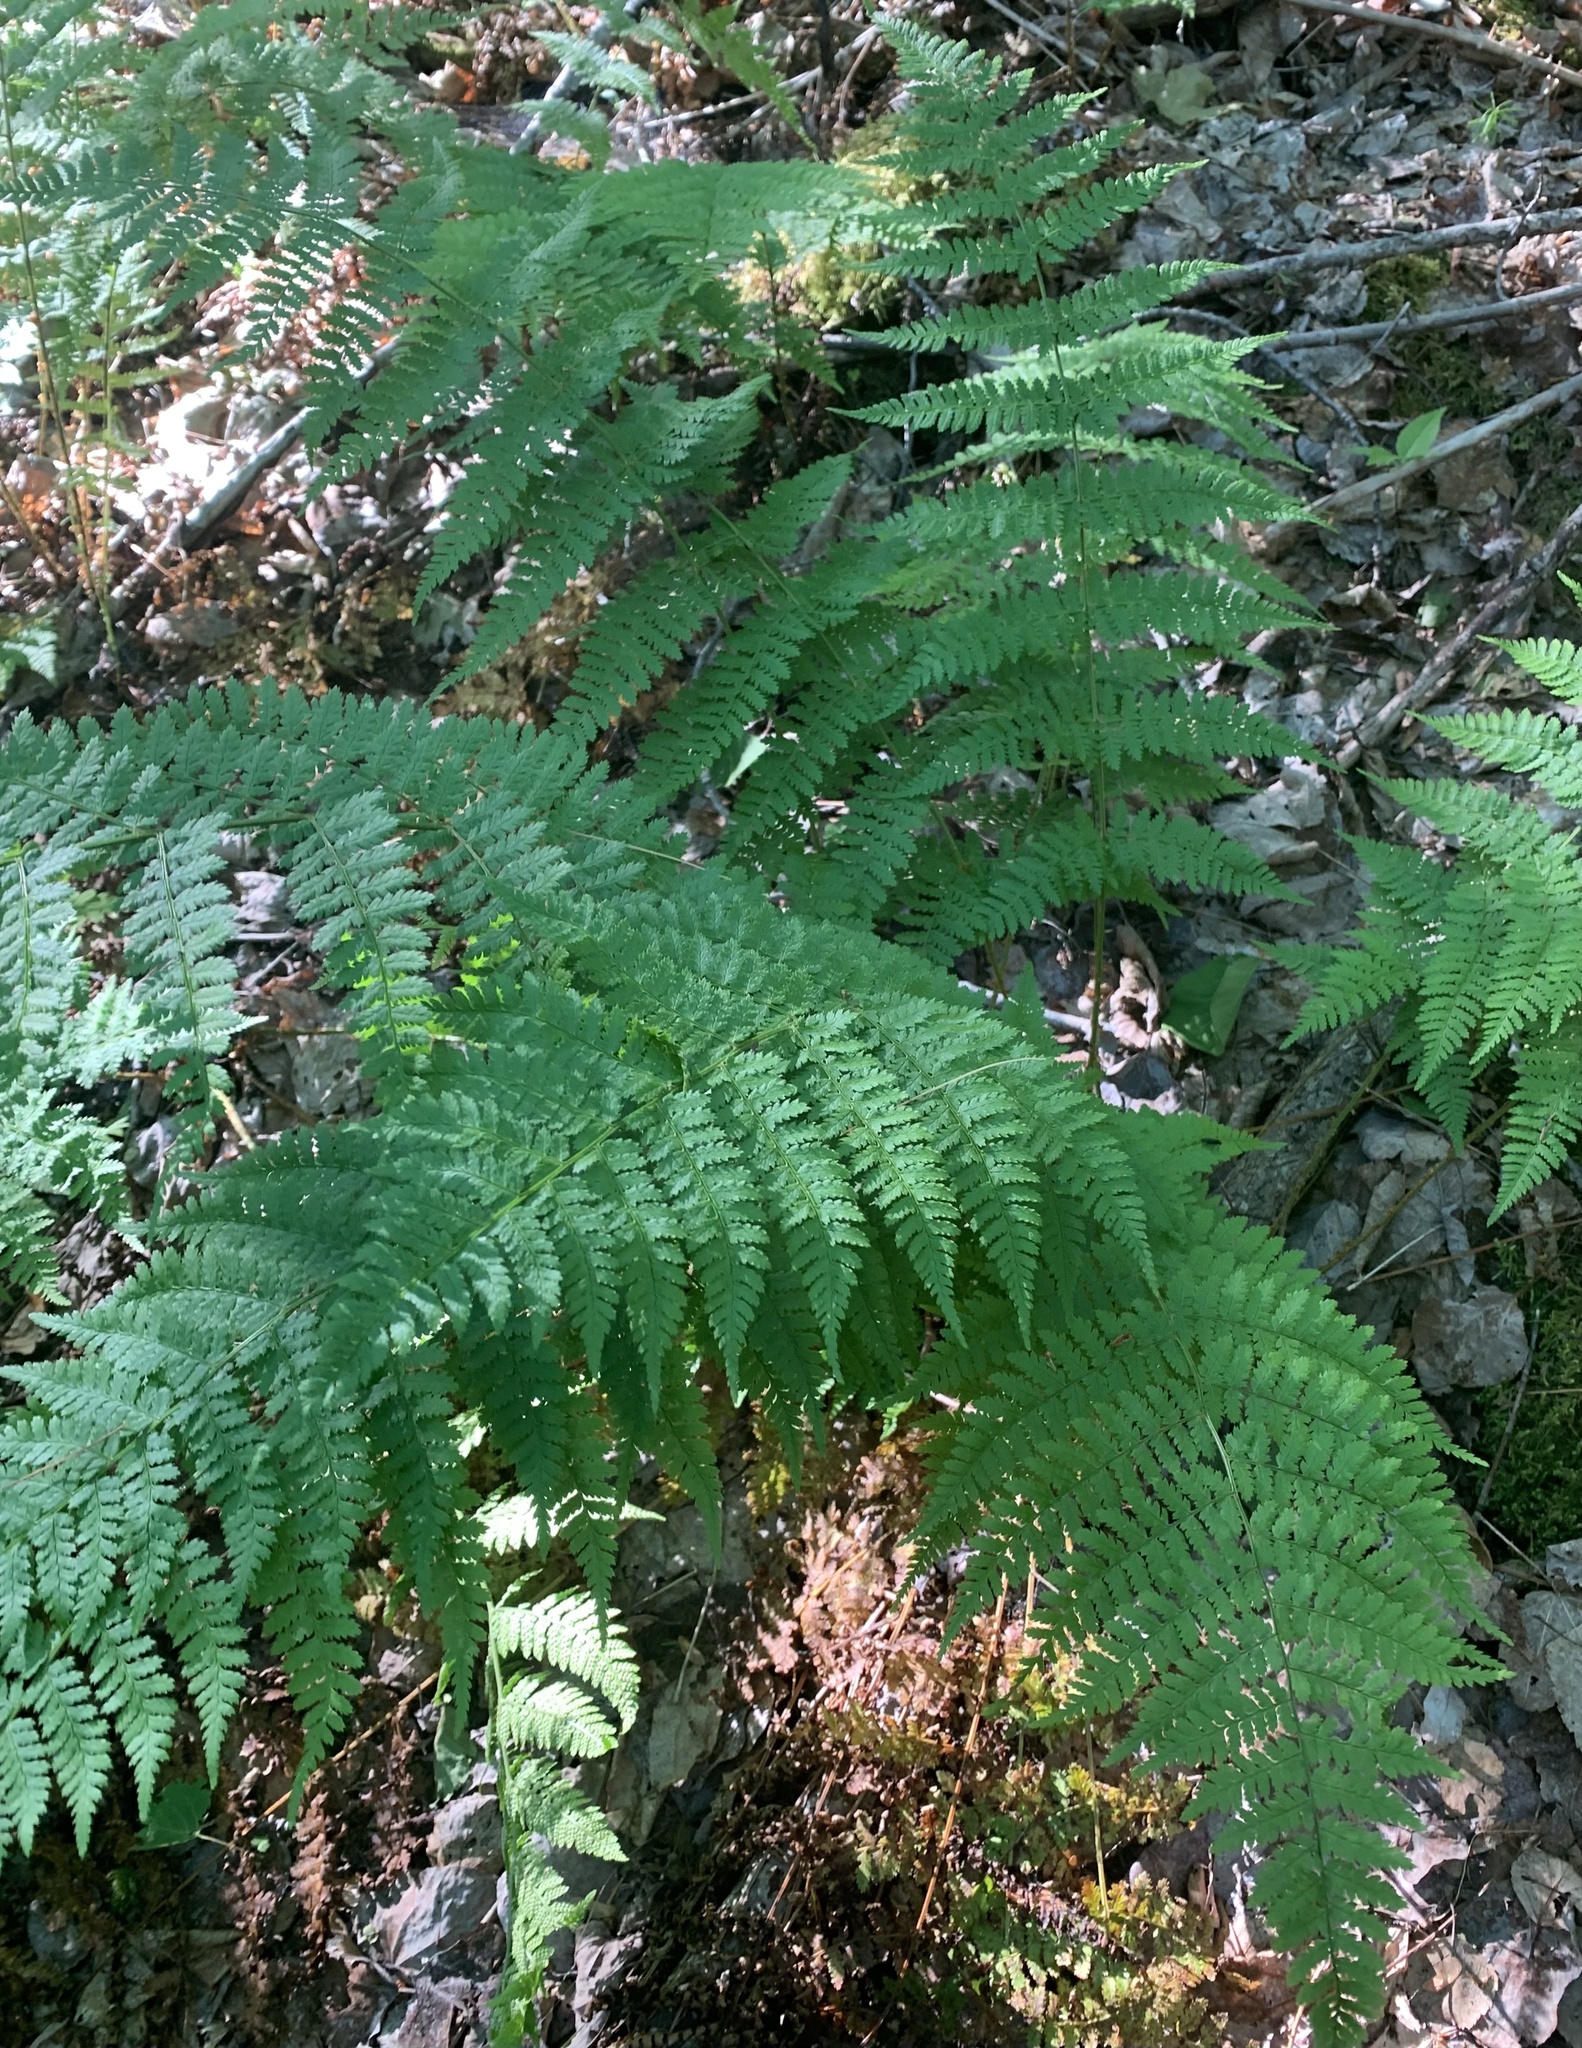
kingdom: Plantae
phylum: Tracheophyta
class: Polypodiopsida
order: Polypodiales
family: Dryopteridaceae
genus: Dryopteris
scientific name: Dryopteris intermedia
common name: Evergreen wood fern
